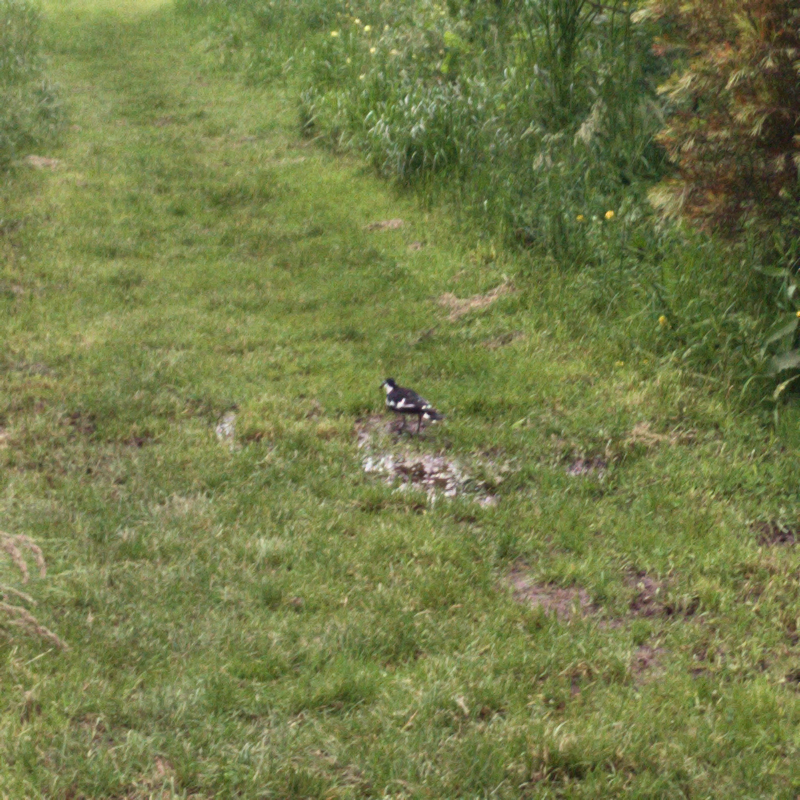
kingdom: Animalia
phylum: Chordata
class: Aves
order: Passeriformes
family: Monarchidae
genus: Grallina
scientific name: Grallina cyanoleuca
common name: Magpie-lark
